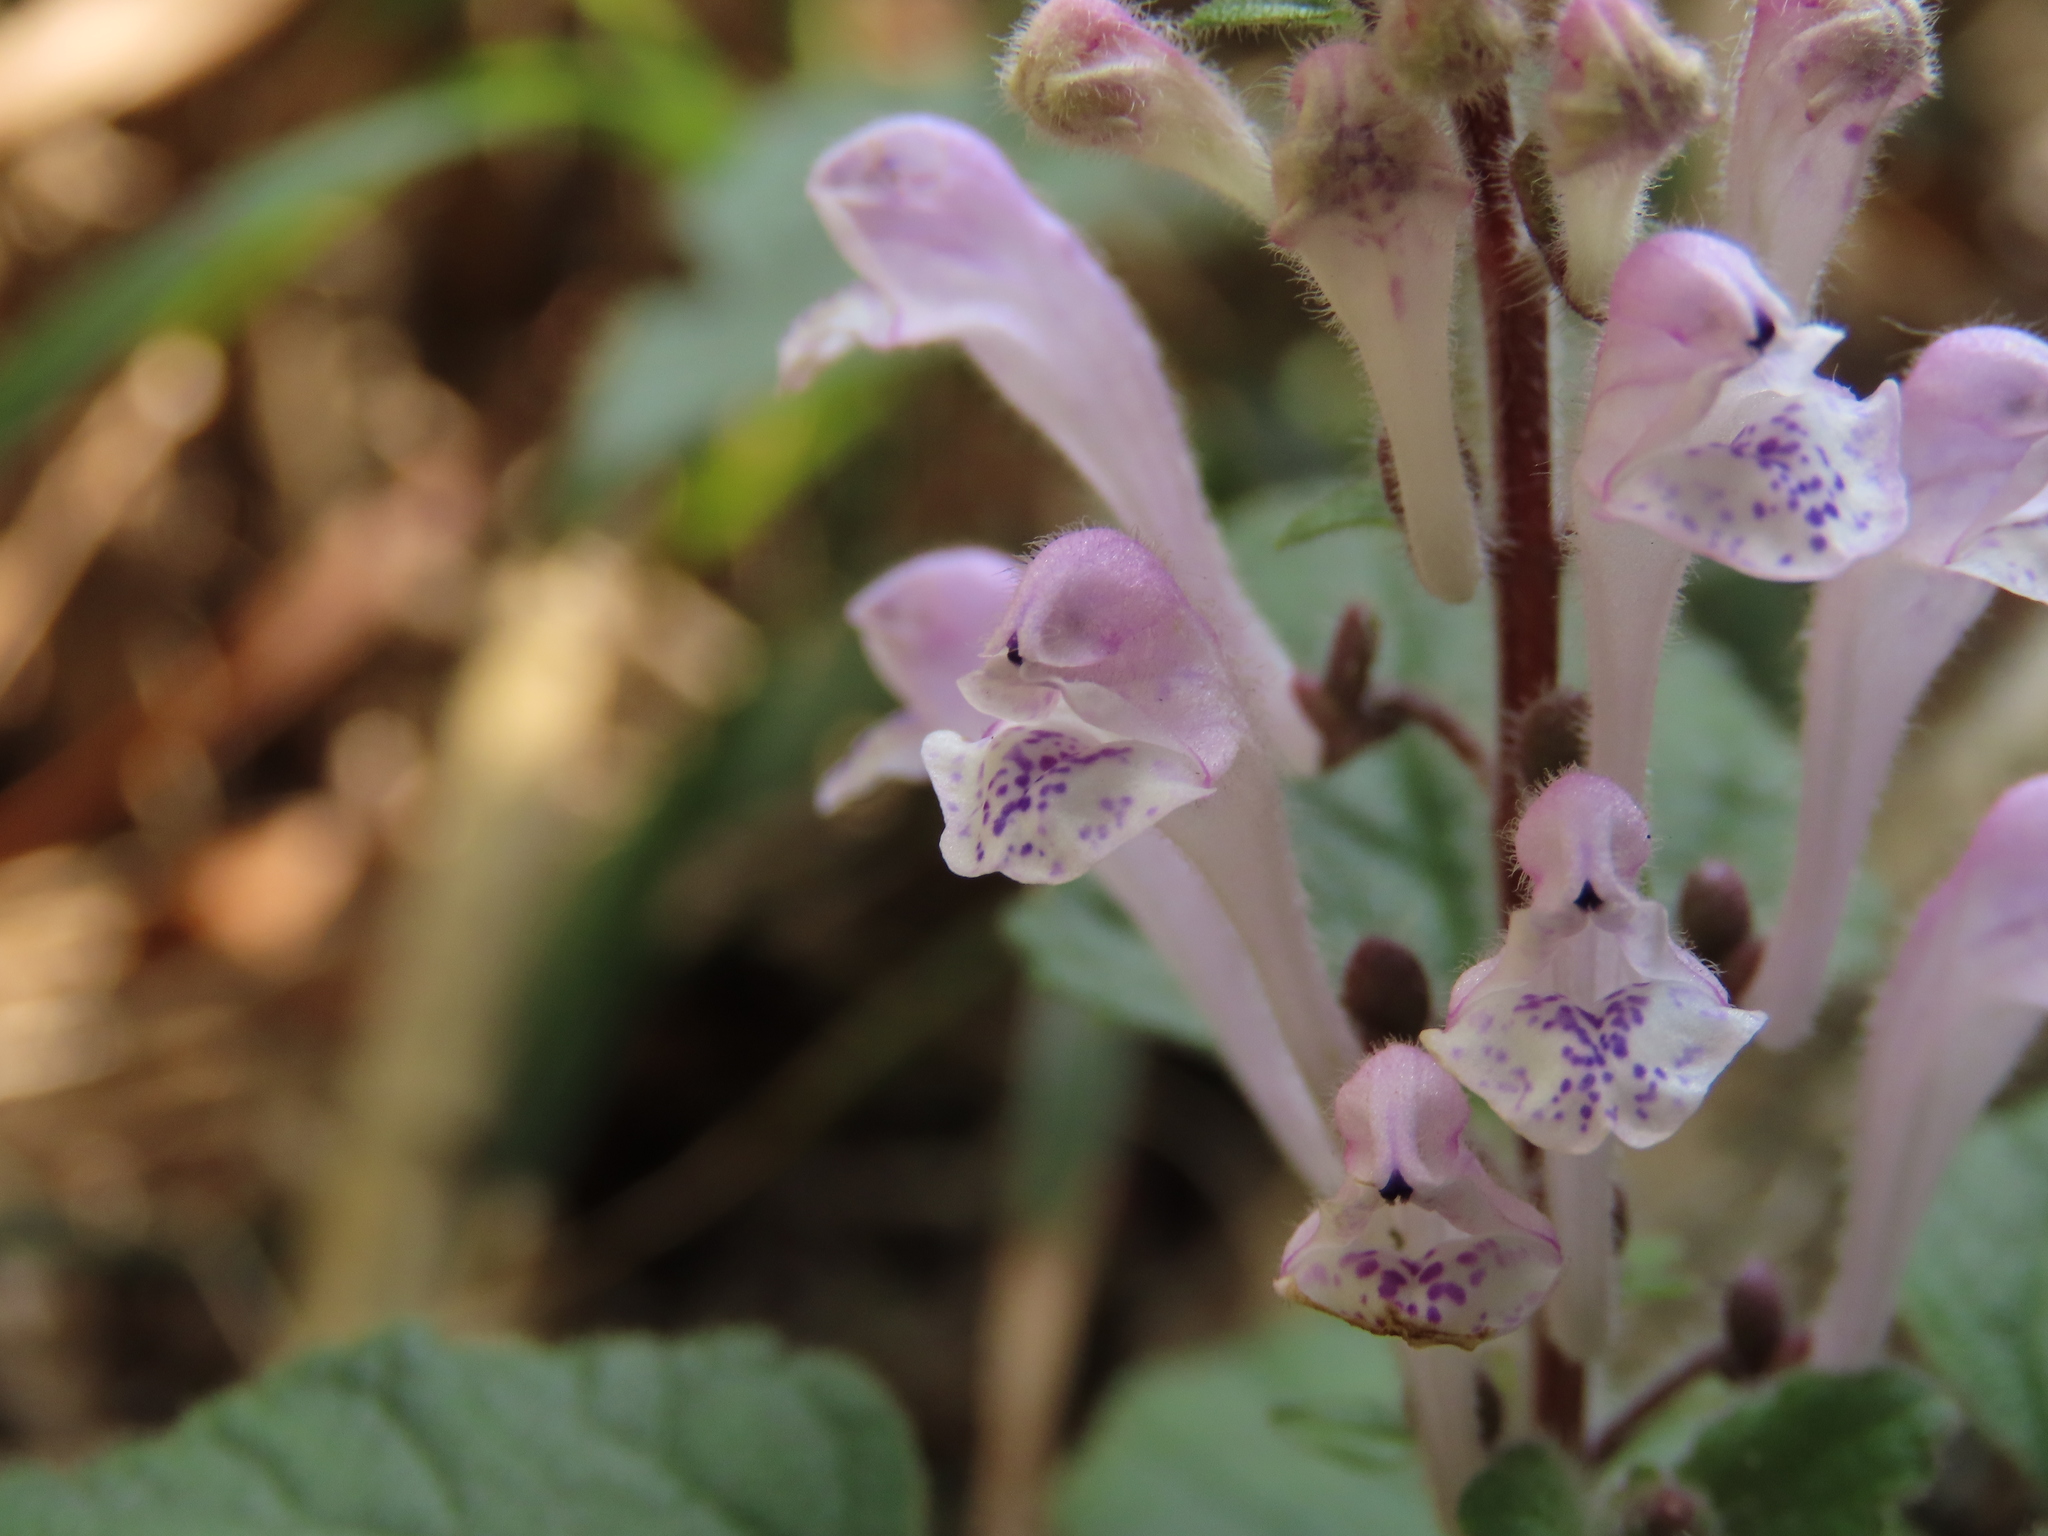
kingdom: Plantae
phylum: Tracheophyta
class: Magnoliopsida
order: Lamiales
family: Lamiaceae
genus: Scutellaria
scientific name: Scutellaria indica
